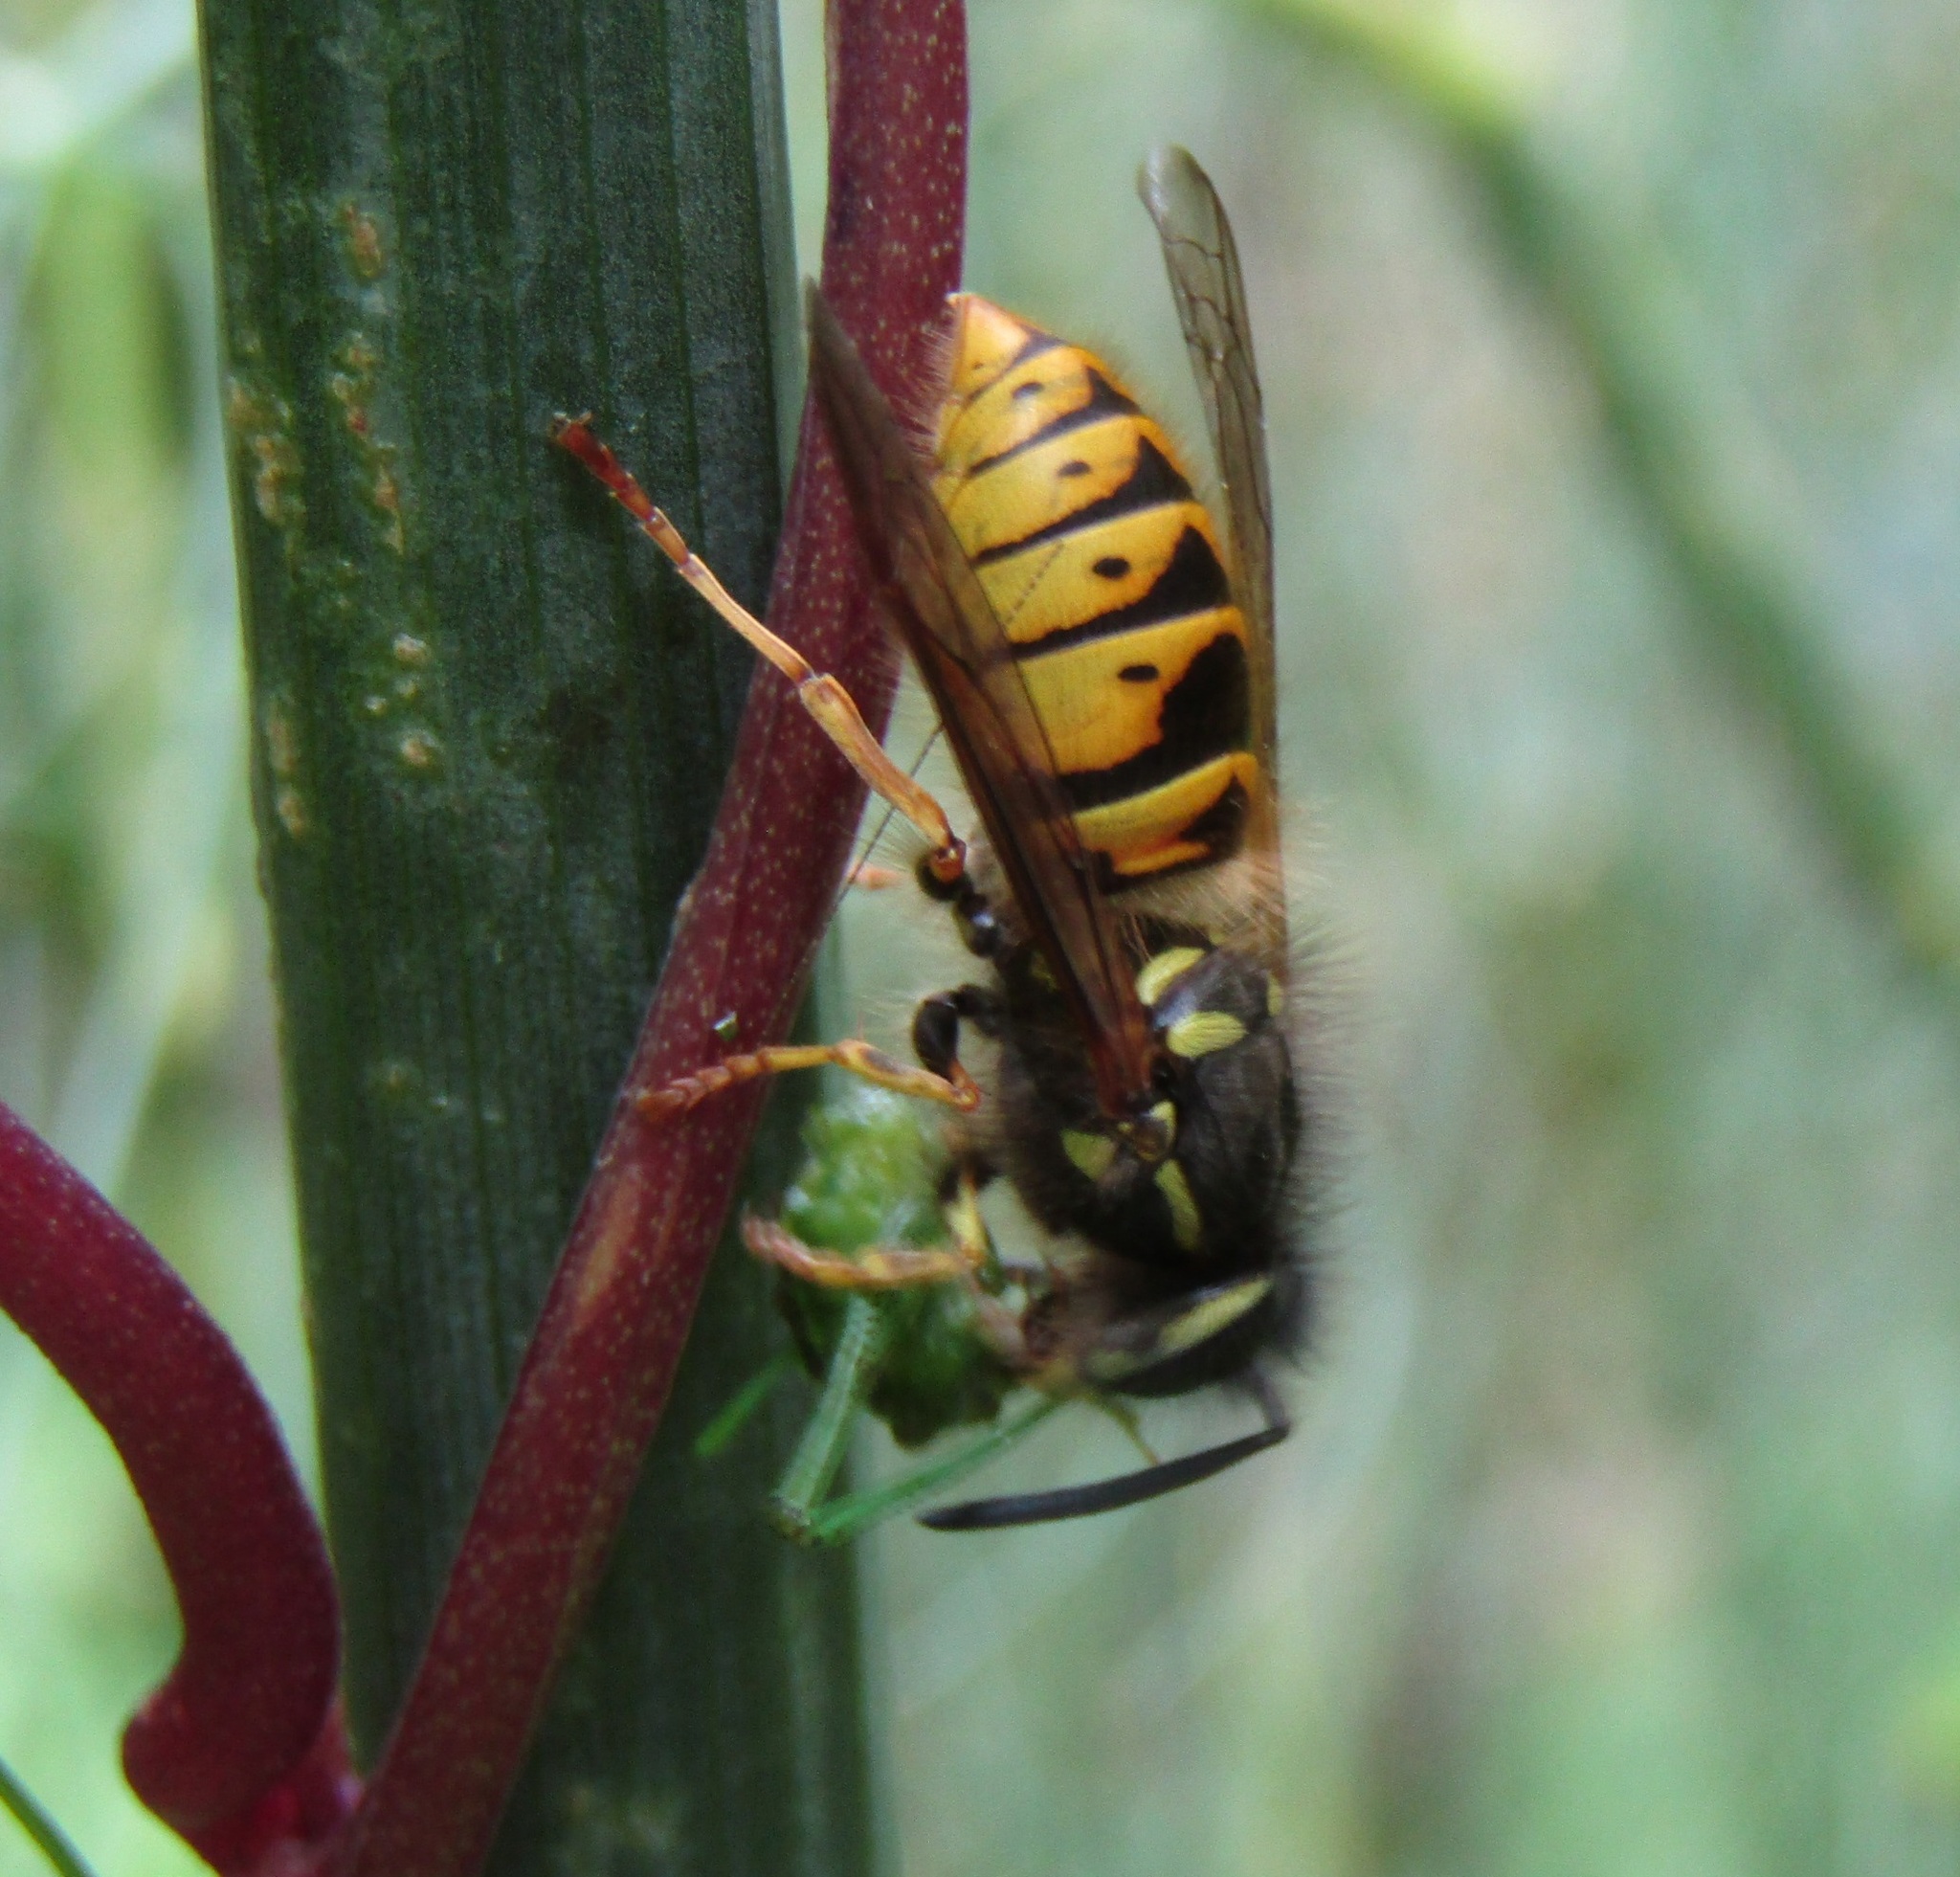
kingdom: Animalia
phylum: Arthropoda
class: Insecta
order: Orthoptera
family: Tettigoniidae
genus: Caedicia
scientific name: Caedicia simplex
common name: Common garden katydid
